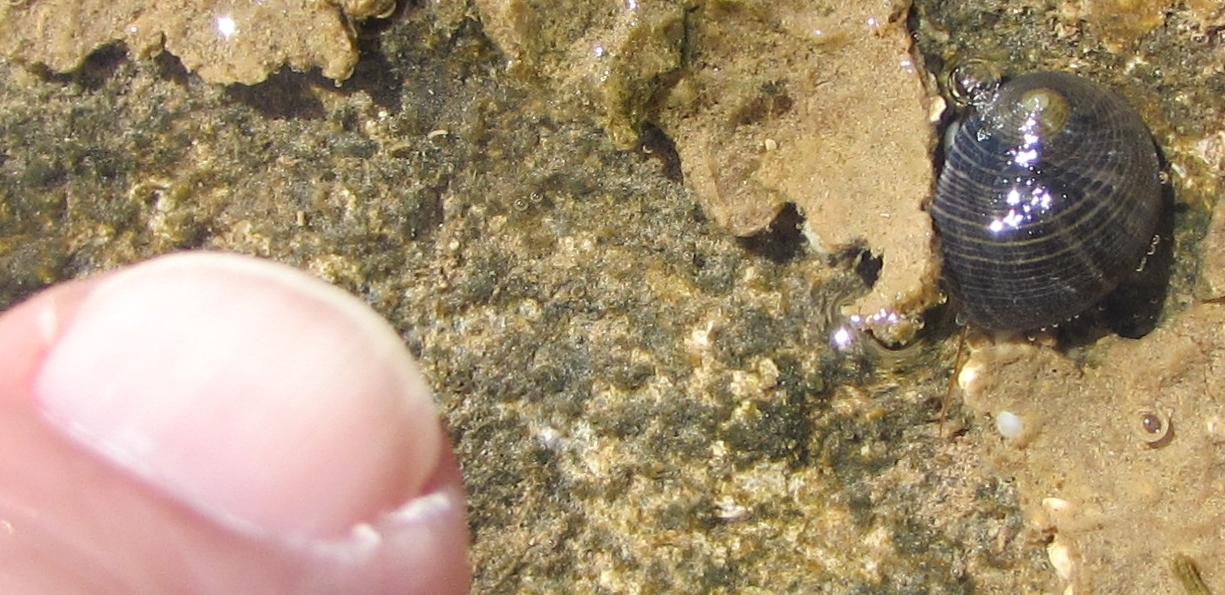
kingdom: Animalia
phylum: Arthropoda
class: Malacostraca
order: Decapoda
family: Diogenidae
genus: Calcinus
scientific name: Calcinus seurati
